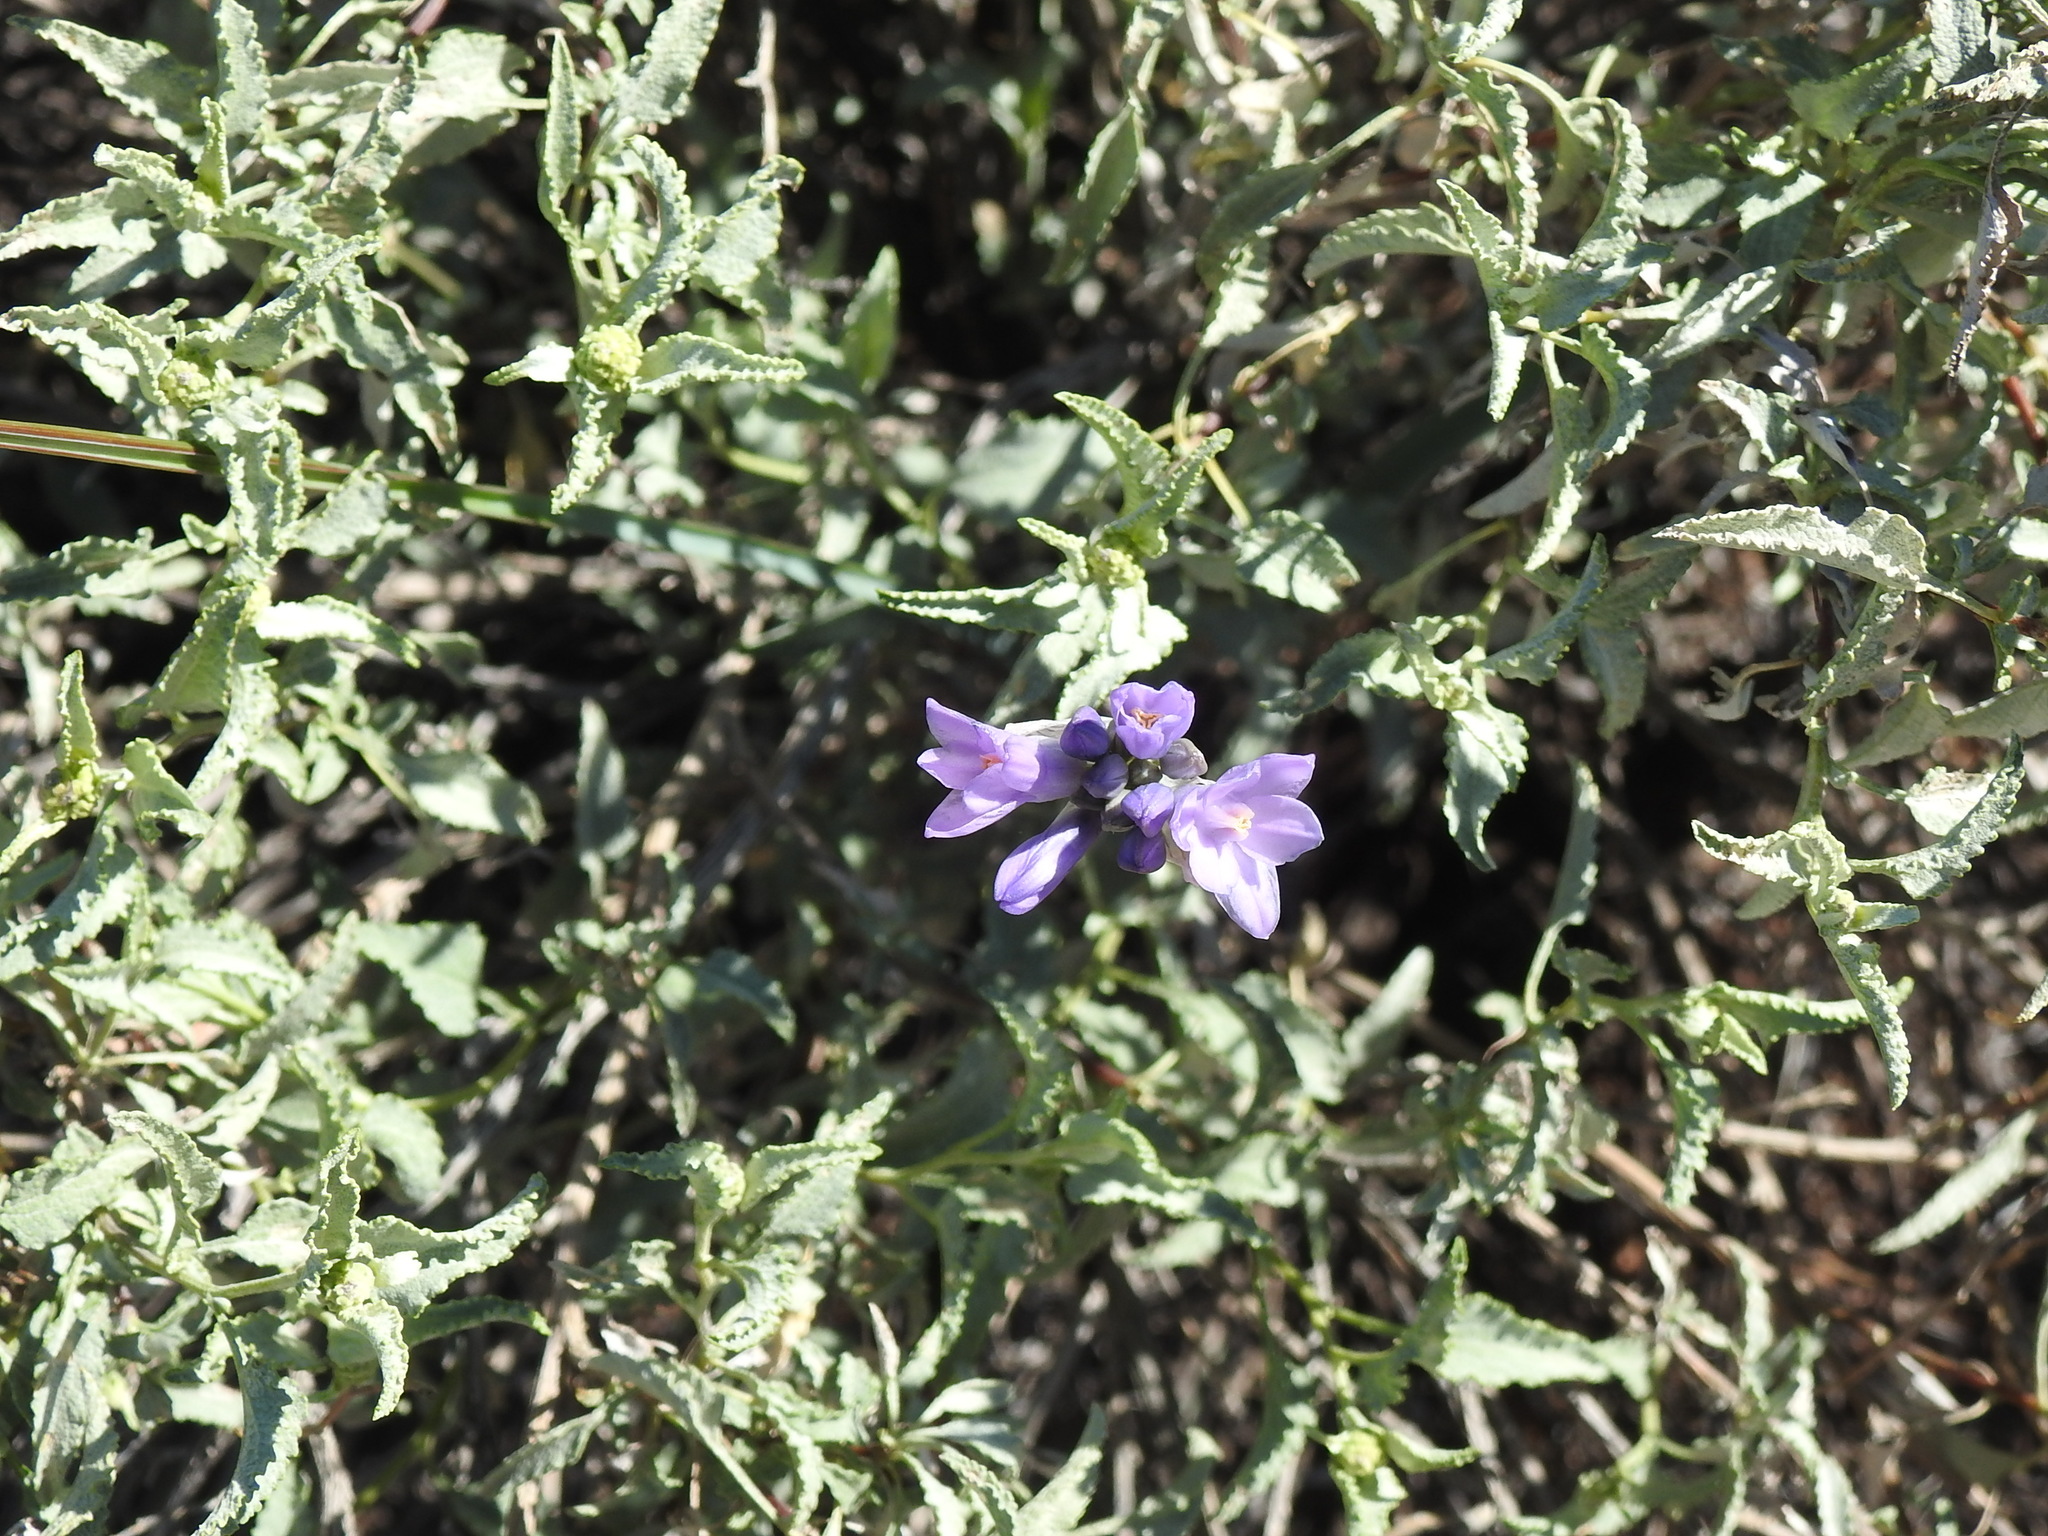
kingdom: Plantae
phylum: Tracheophyta
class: Magnoliopsida
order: Asterales
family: Asteraceae
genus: Ambrosia
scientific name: Ambrosia deltoidea
